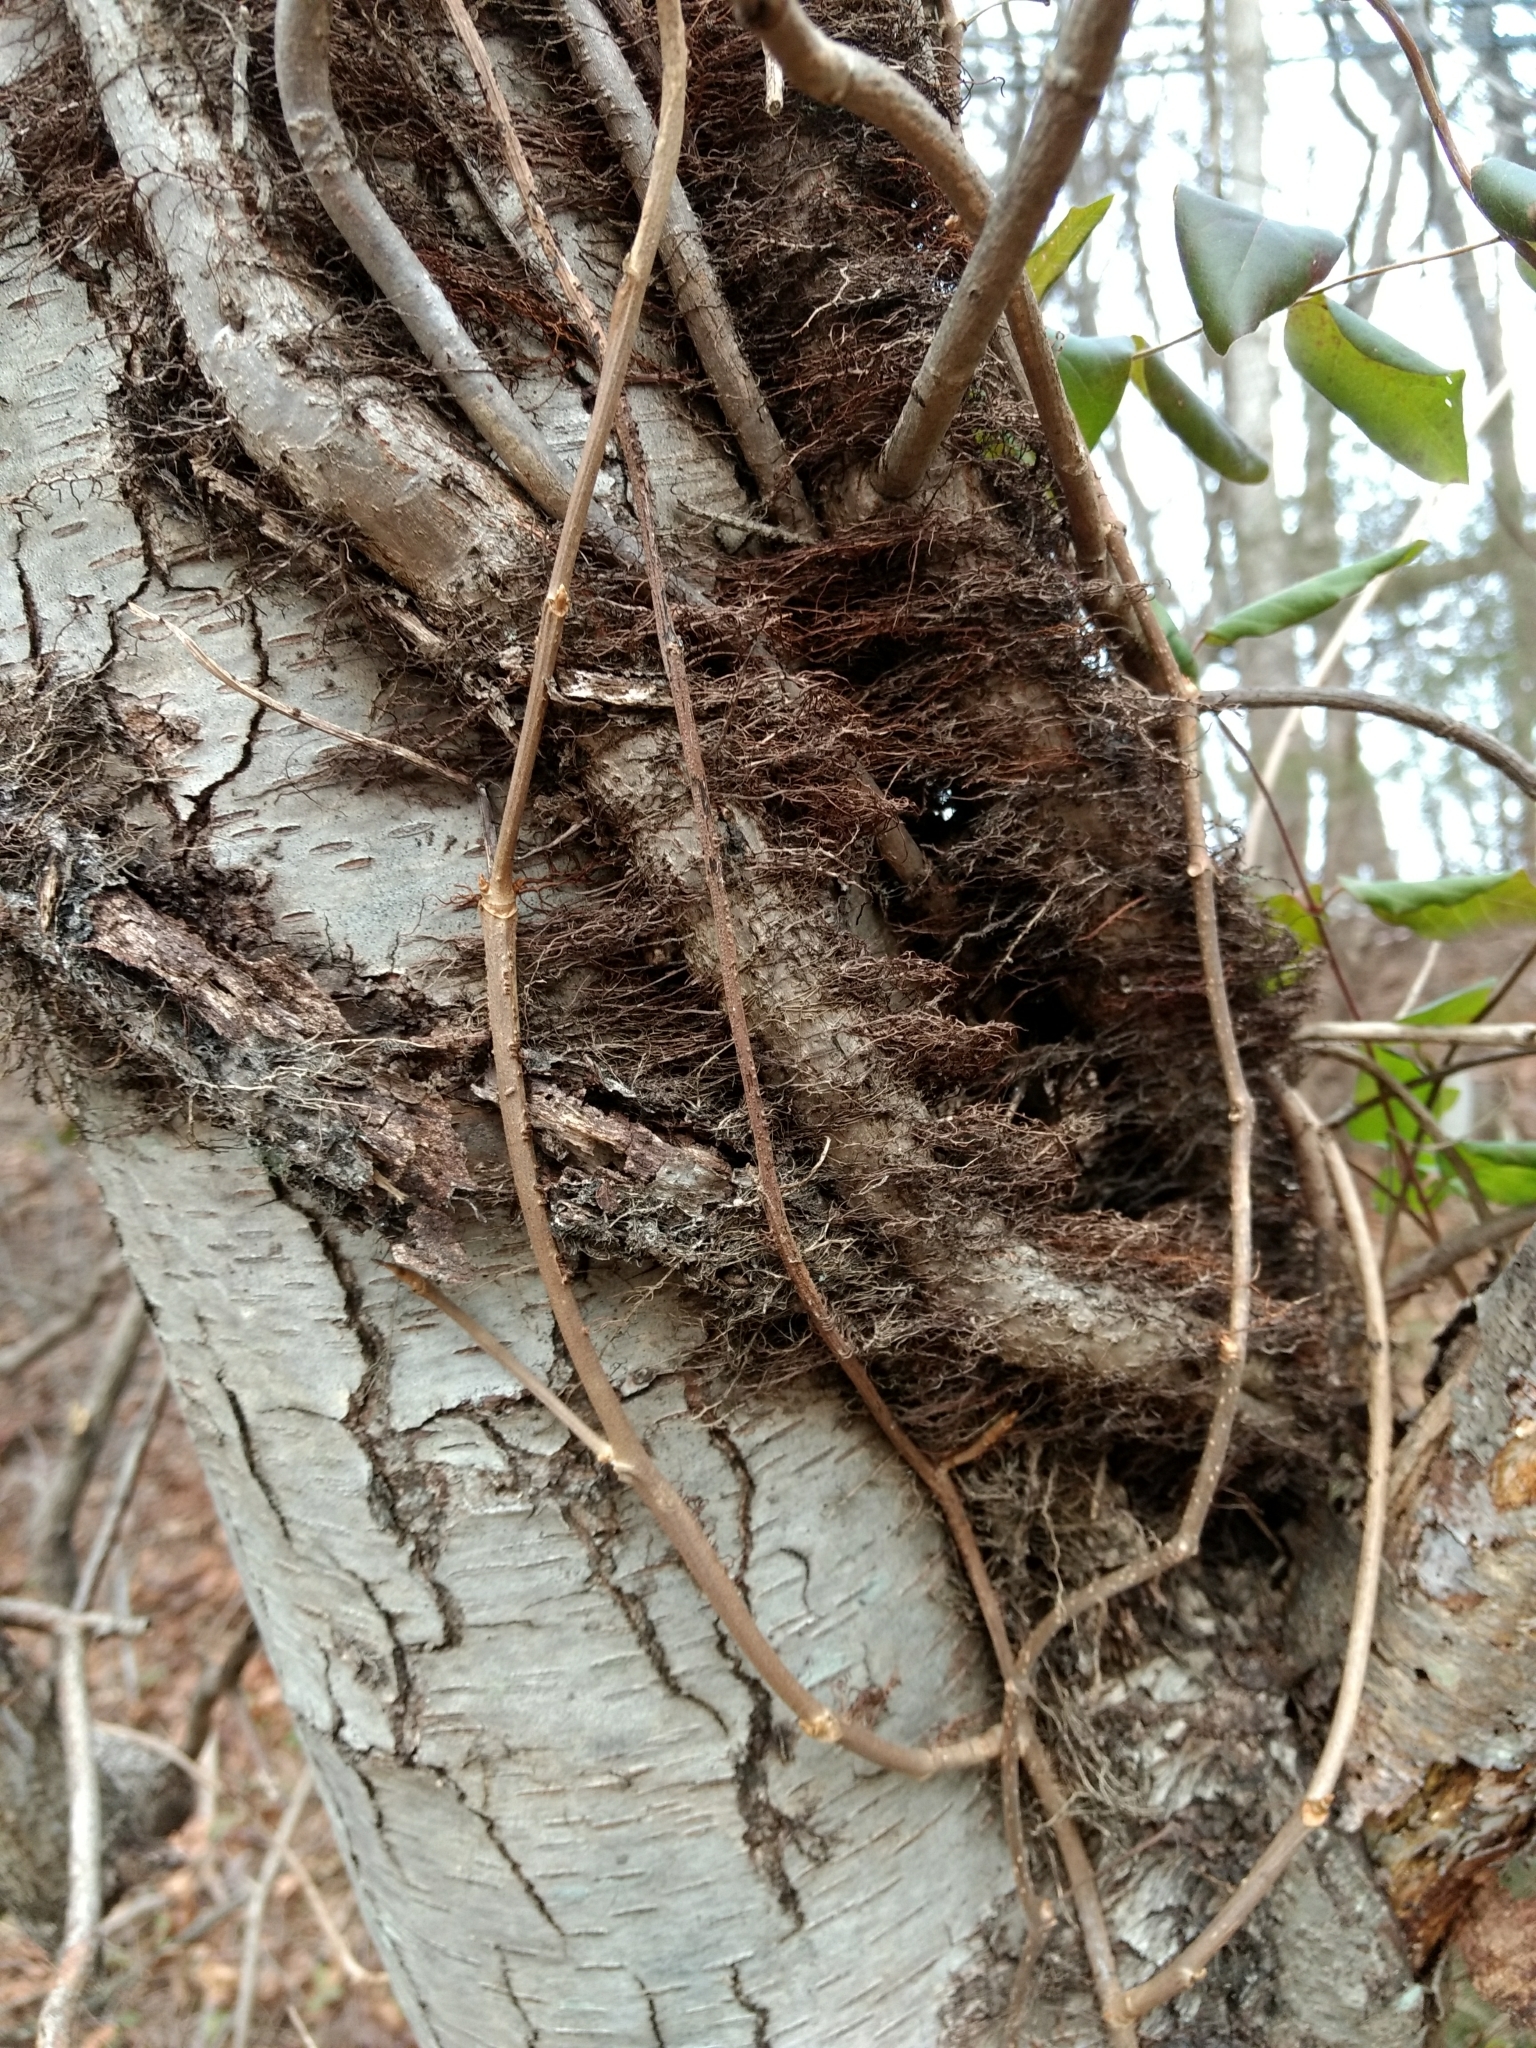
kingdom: Plantae
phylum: Tracheophyta
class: Magnoliopsida
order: Sapindales
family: Anacardiaceae
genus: Toxicodendron
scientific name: Toxicodendron radicans
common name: Poison ivy
